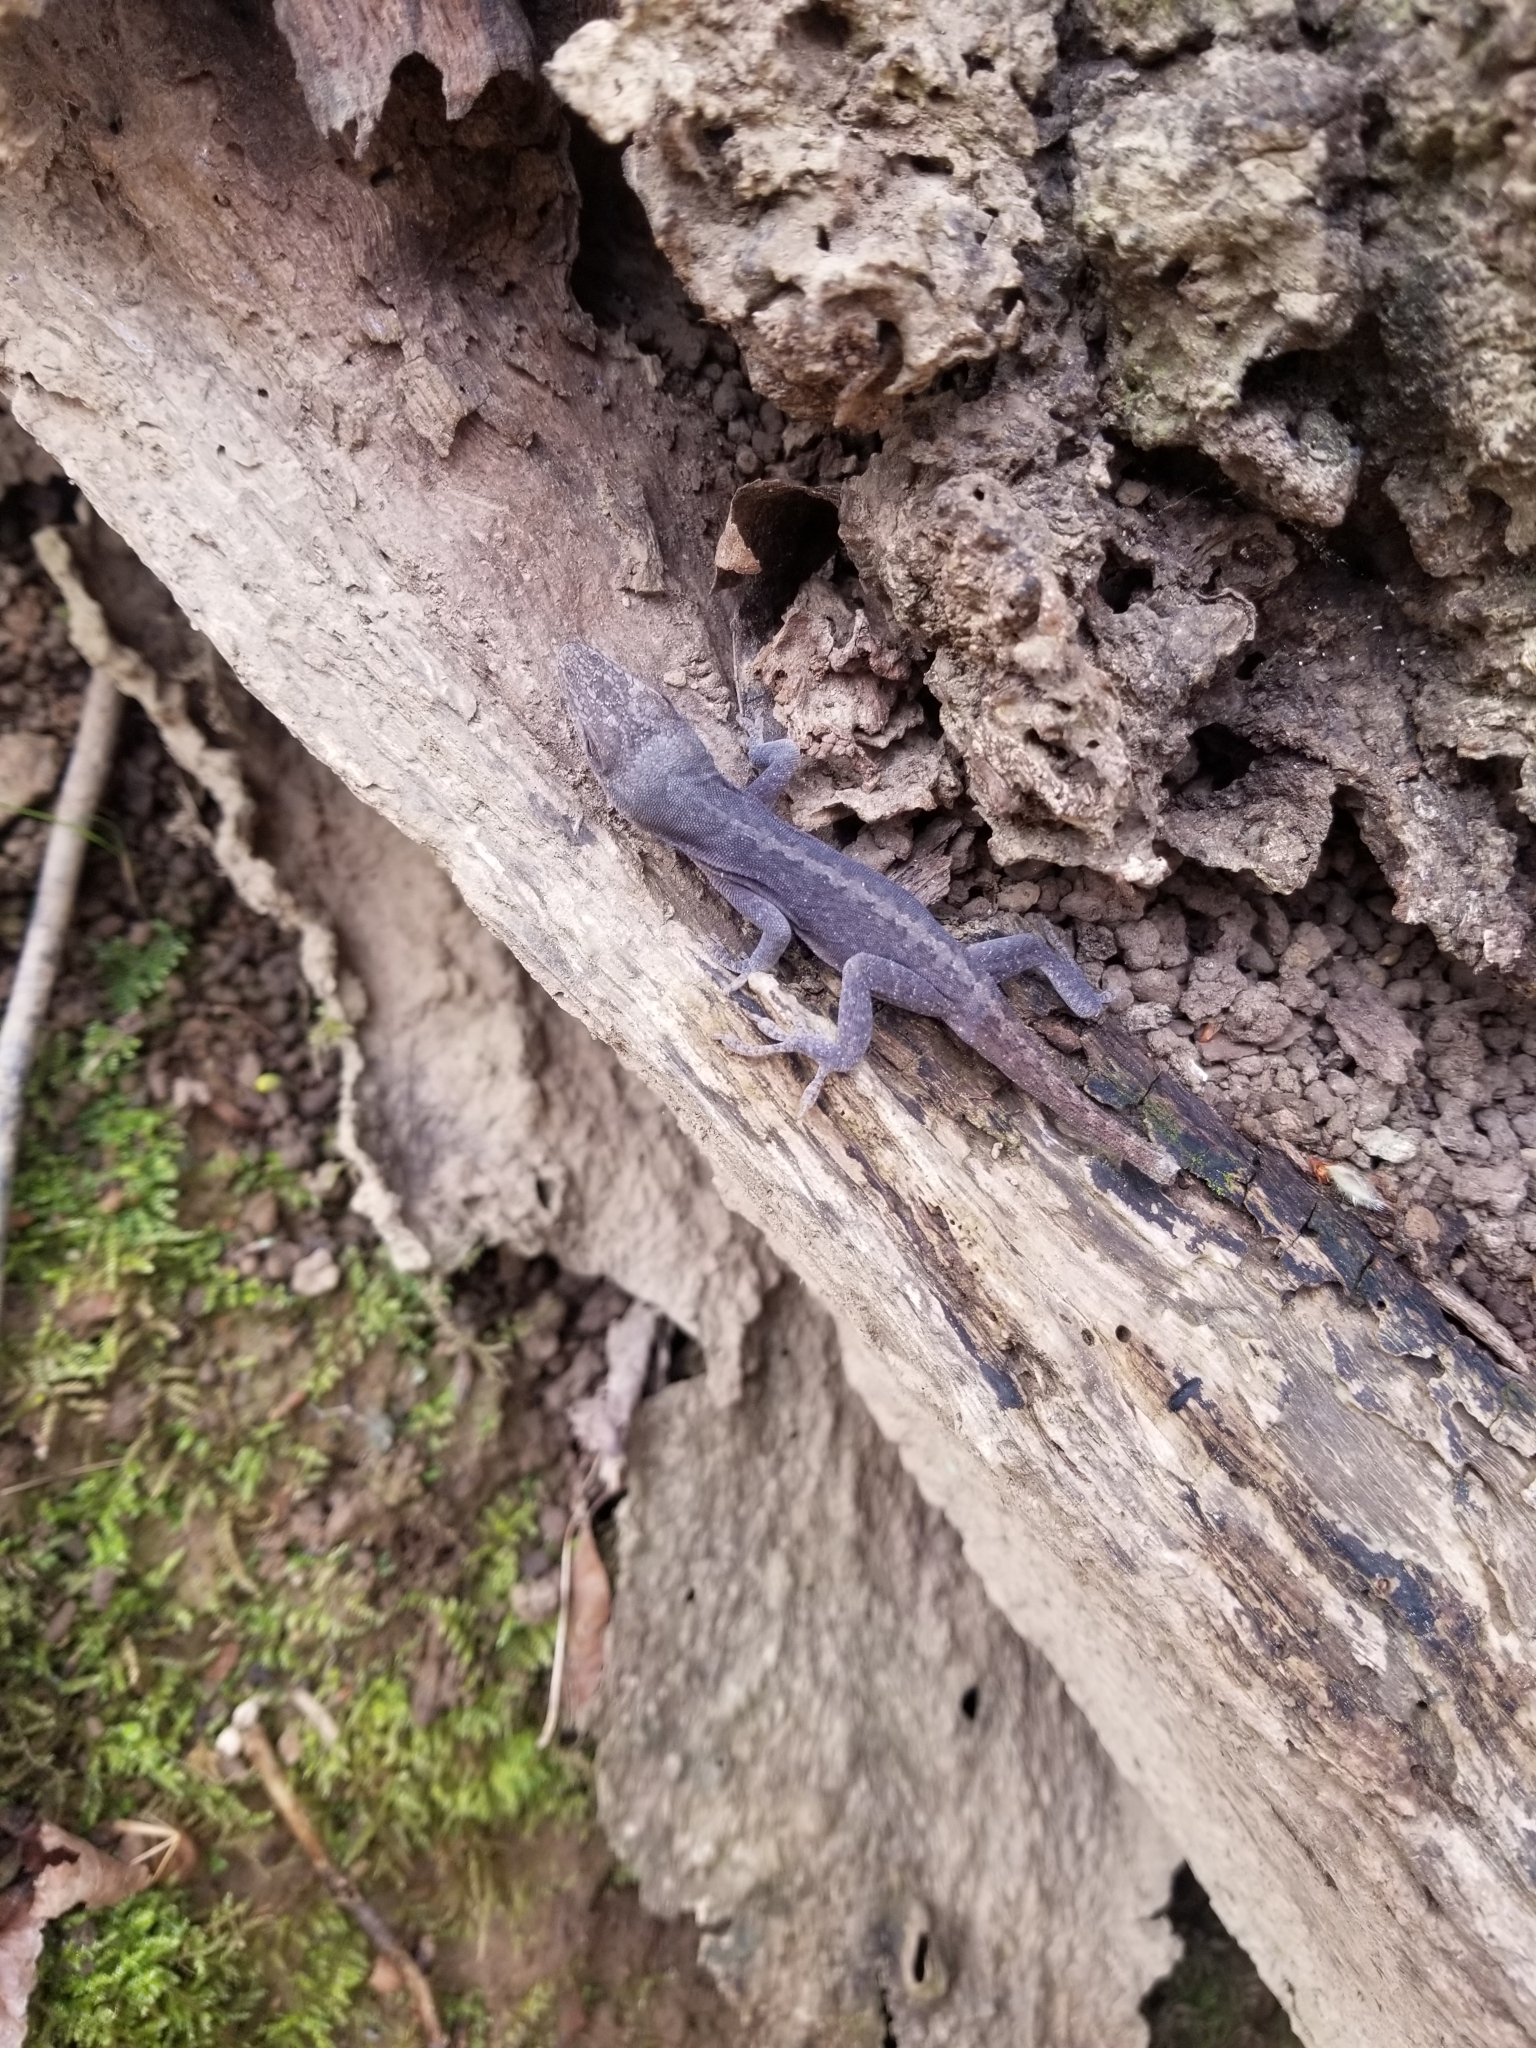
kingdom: Animalia
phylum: Chordata
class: Squamata
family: Dactyloidae
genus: Anolis
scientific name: Anolis carolinensis
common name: Green anole
